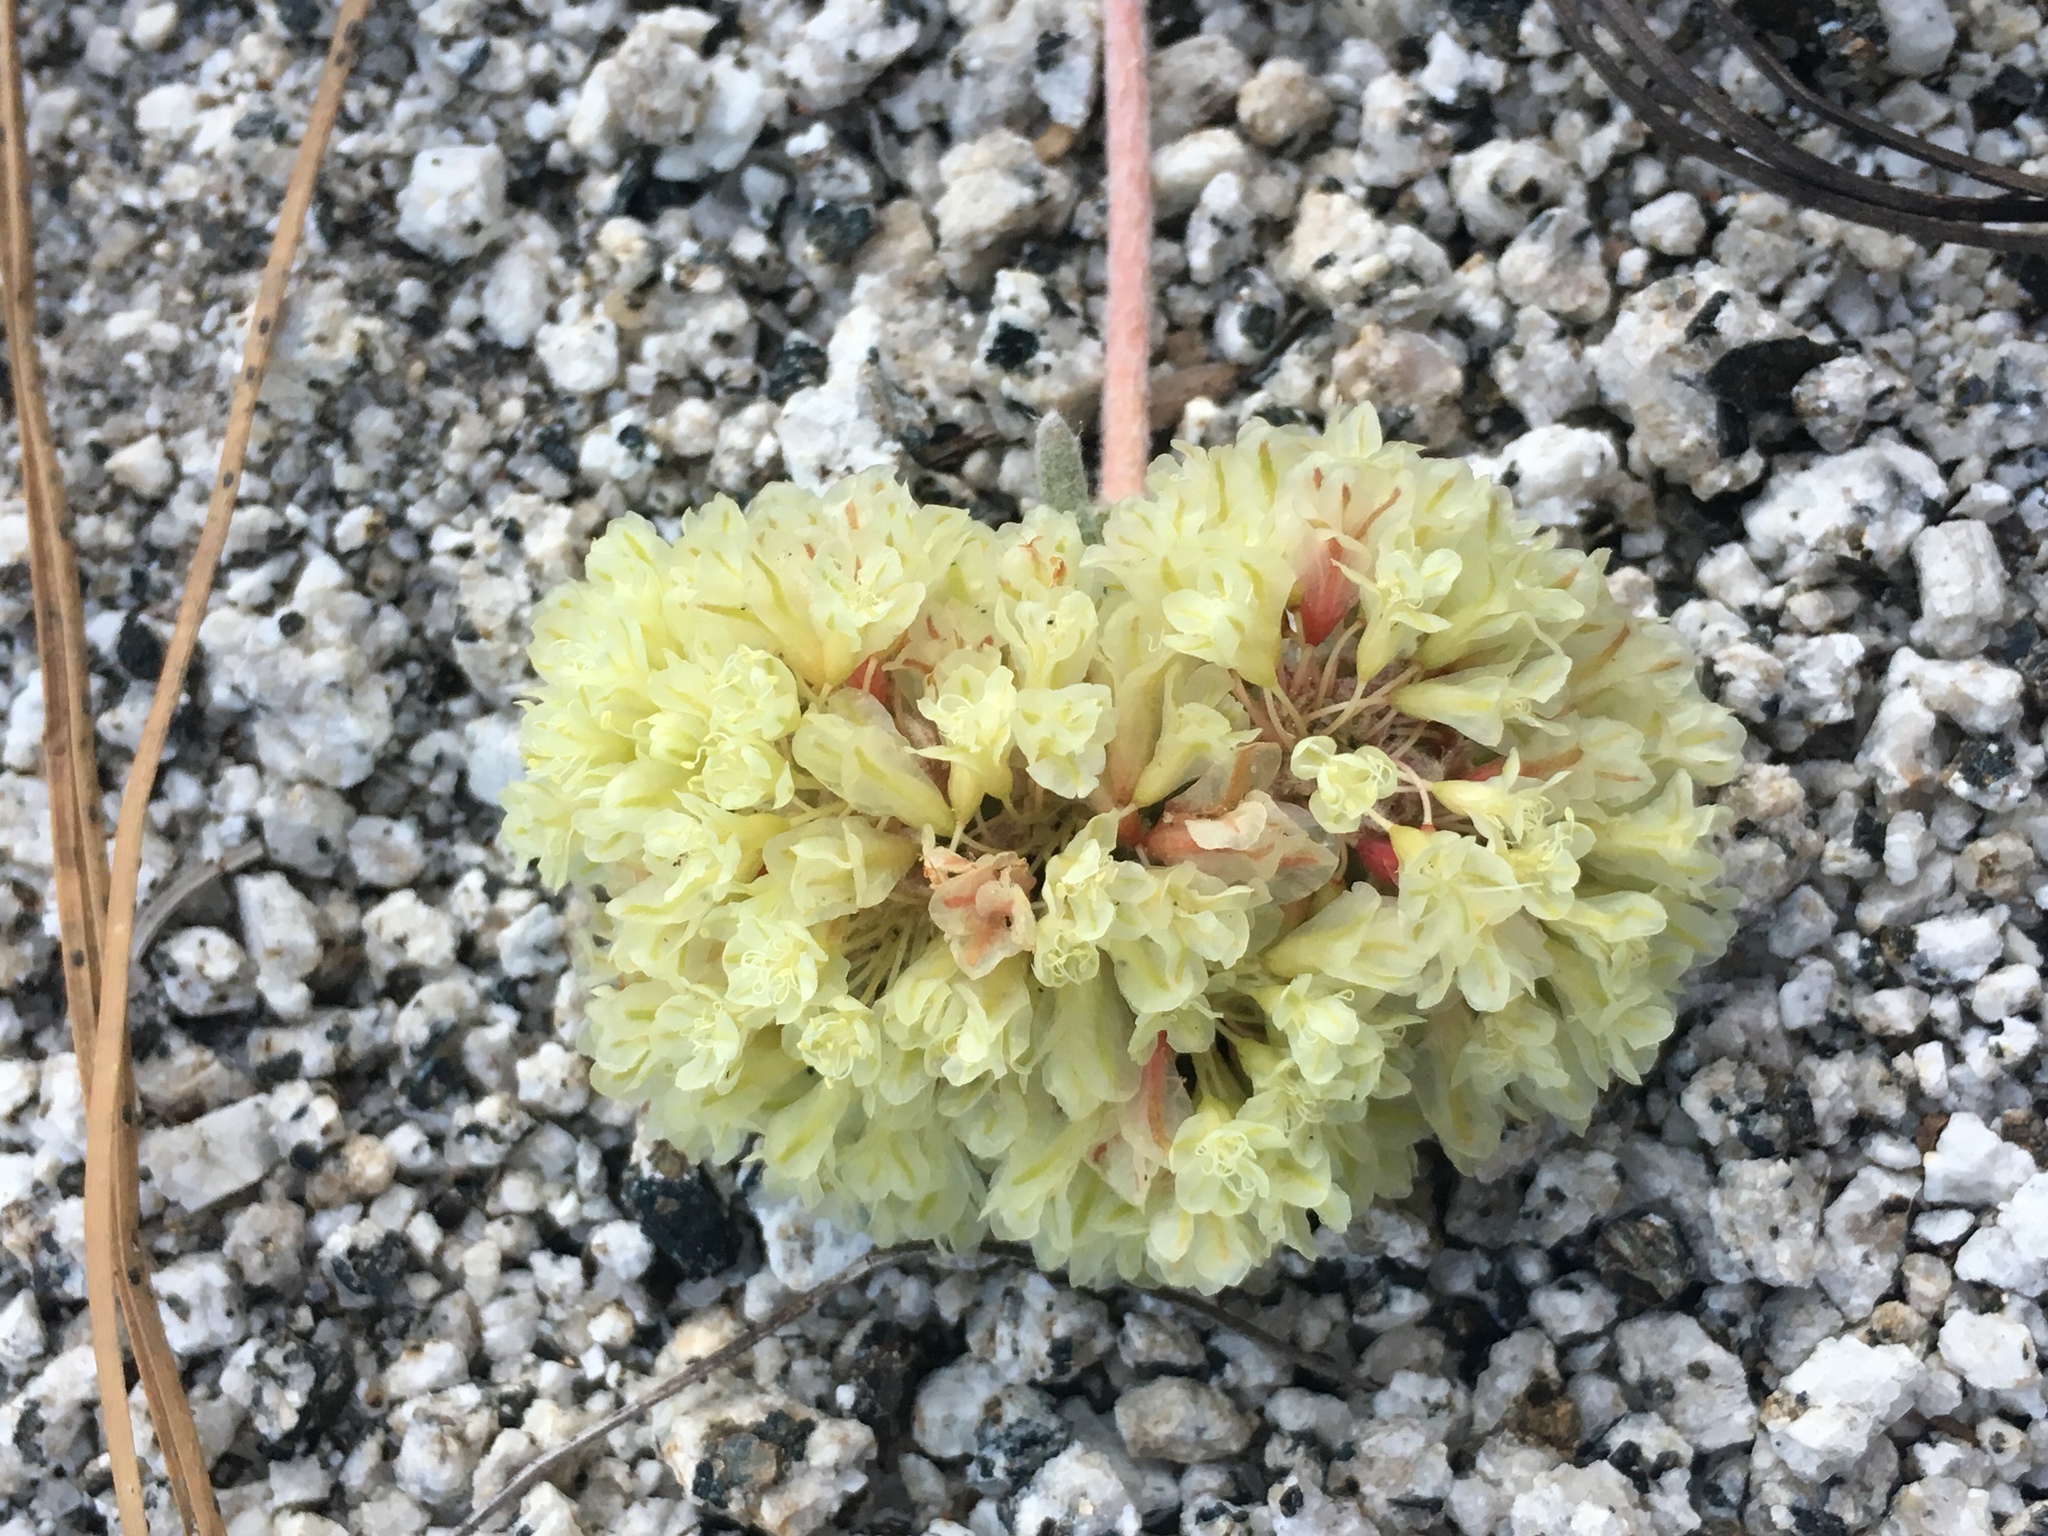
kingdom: Plantae
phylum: Tracheophyta
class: Magnoliopsida
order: Caryophyllales
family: Polygonaceae
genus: Eriogonum
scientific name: Eriogonum lobbii
